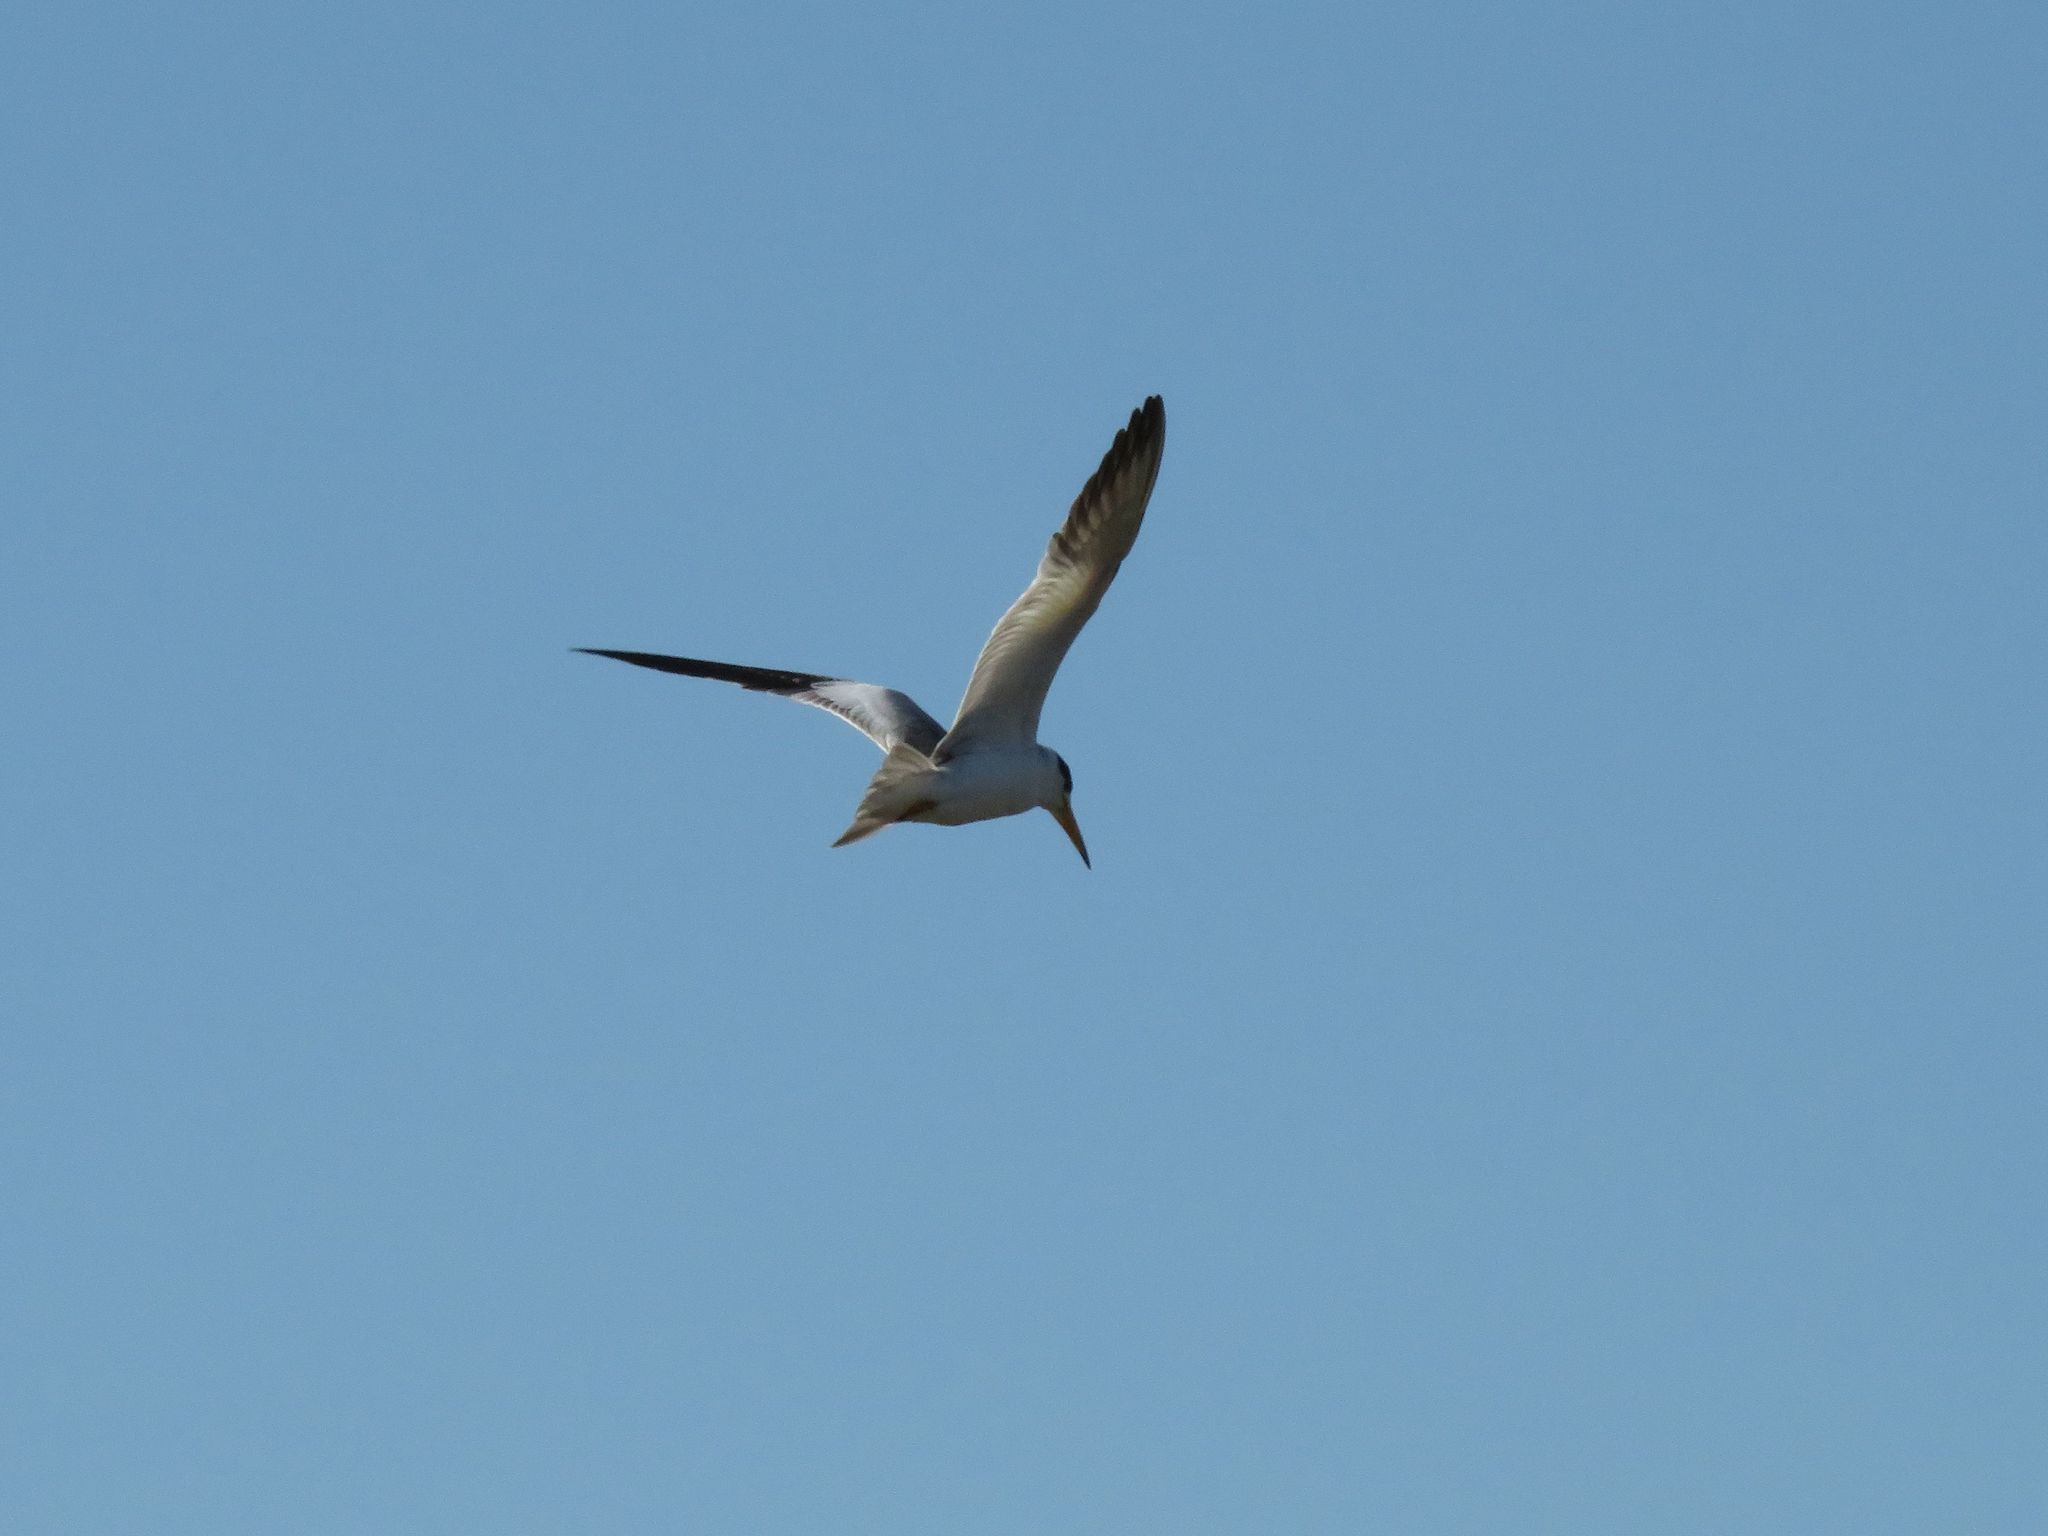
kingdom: Animalia
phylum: Chordata
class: Aves
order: Charadriiformes
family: Laridae
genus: Phaetusa
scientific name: Phaetusa simplex
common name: Large-billed tern
